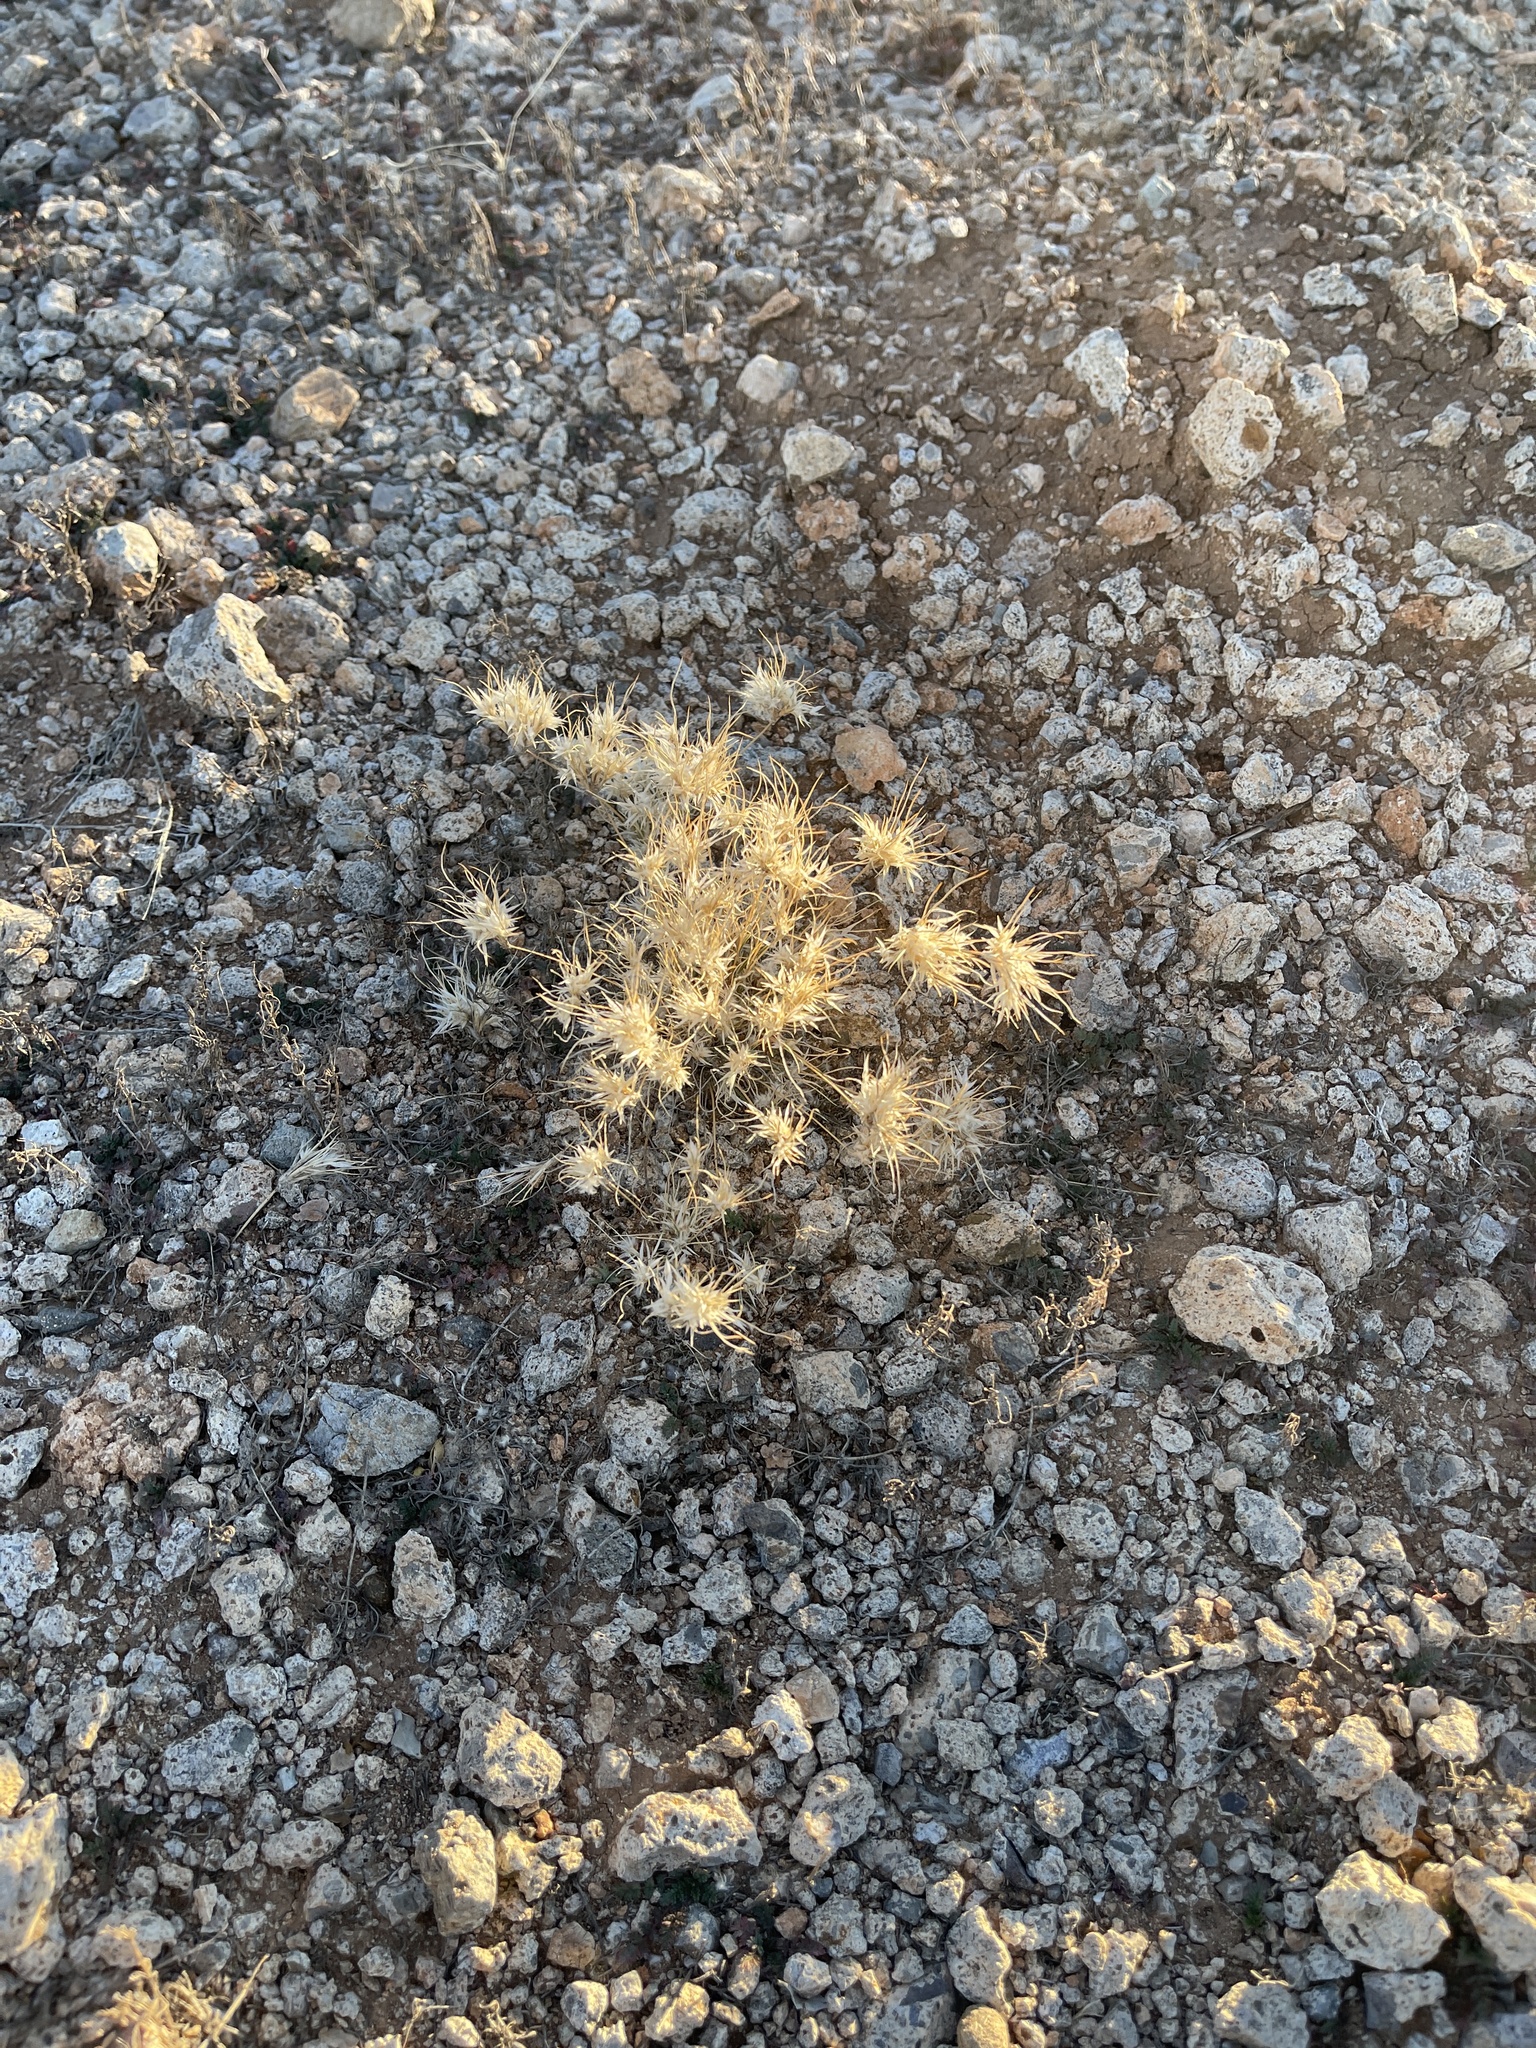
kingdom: Plantae
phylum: Tracheophyta
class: Liliopsida
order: Poales
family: Poaceae
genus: Dasyochloa
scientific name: Dasyochloa pulchella
